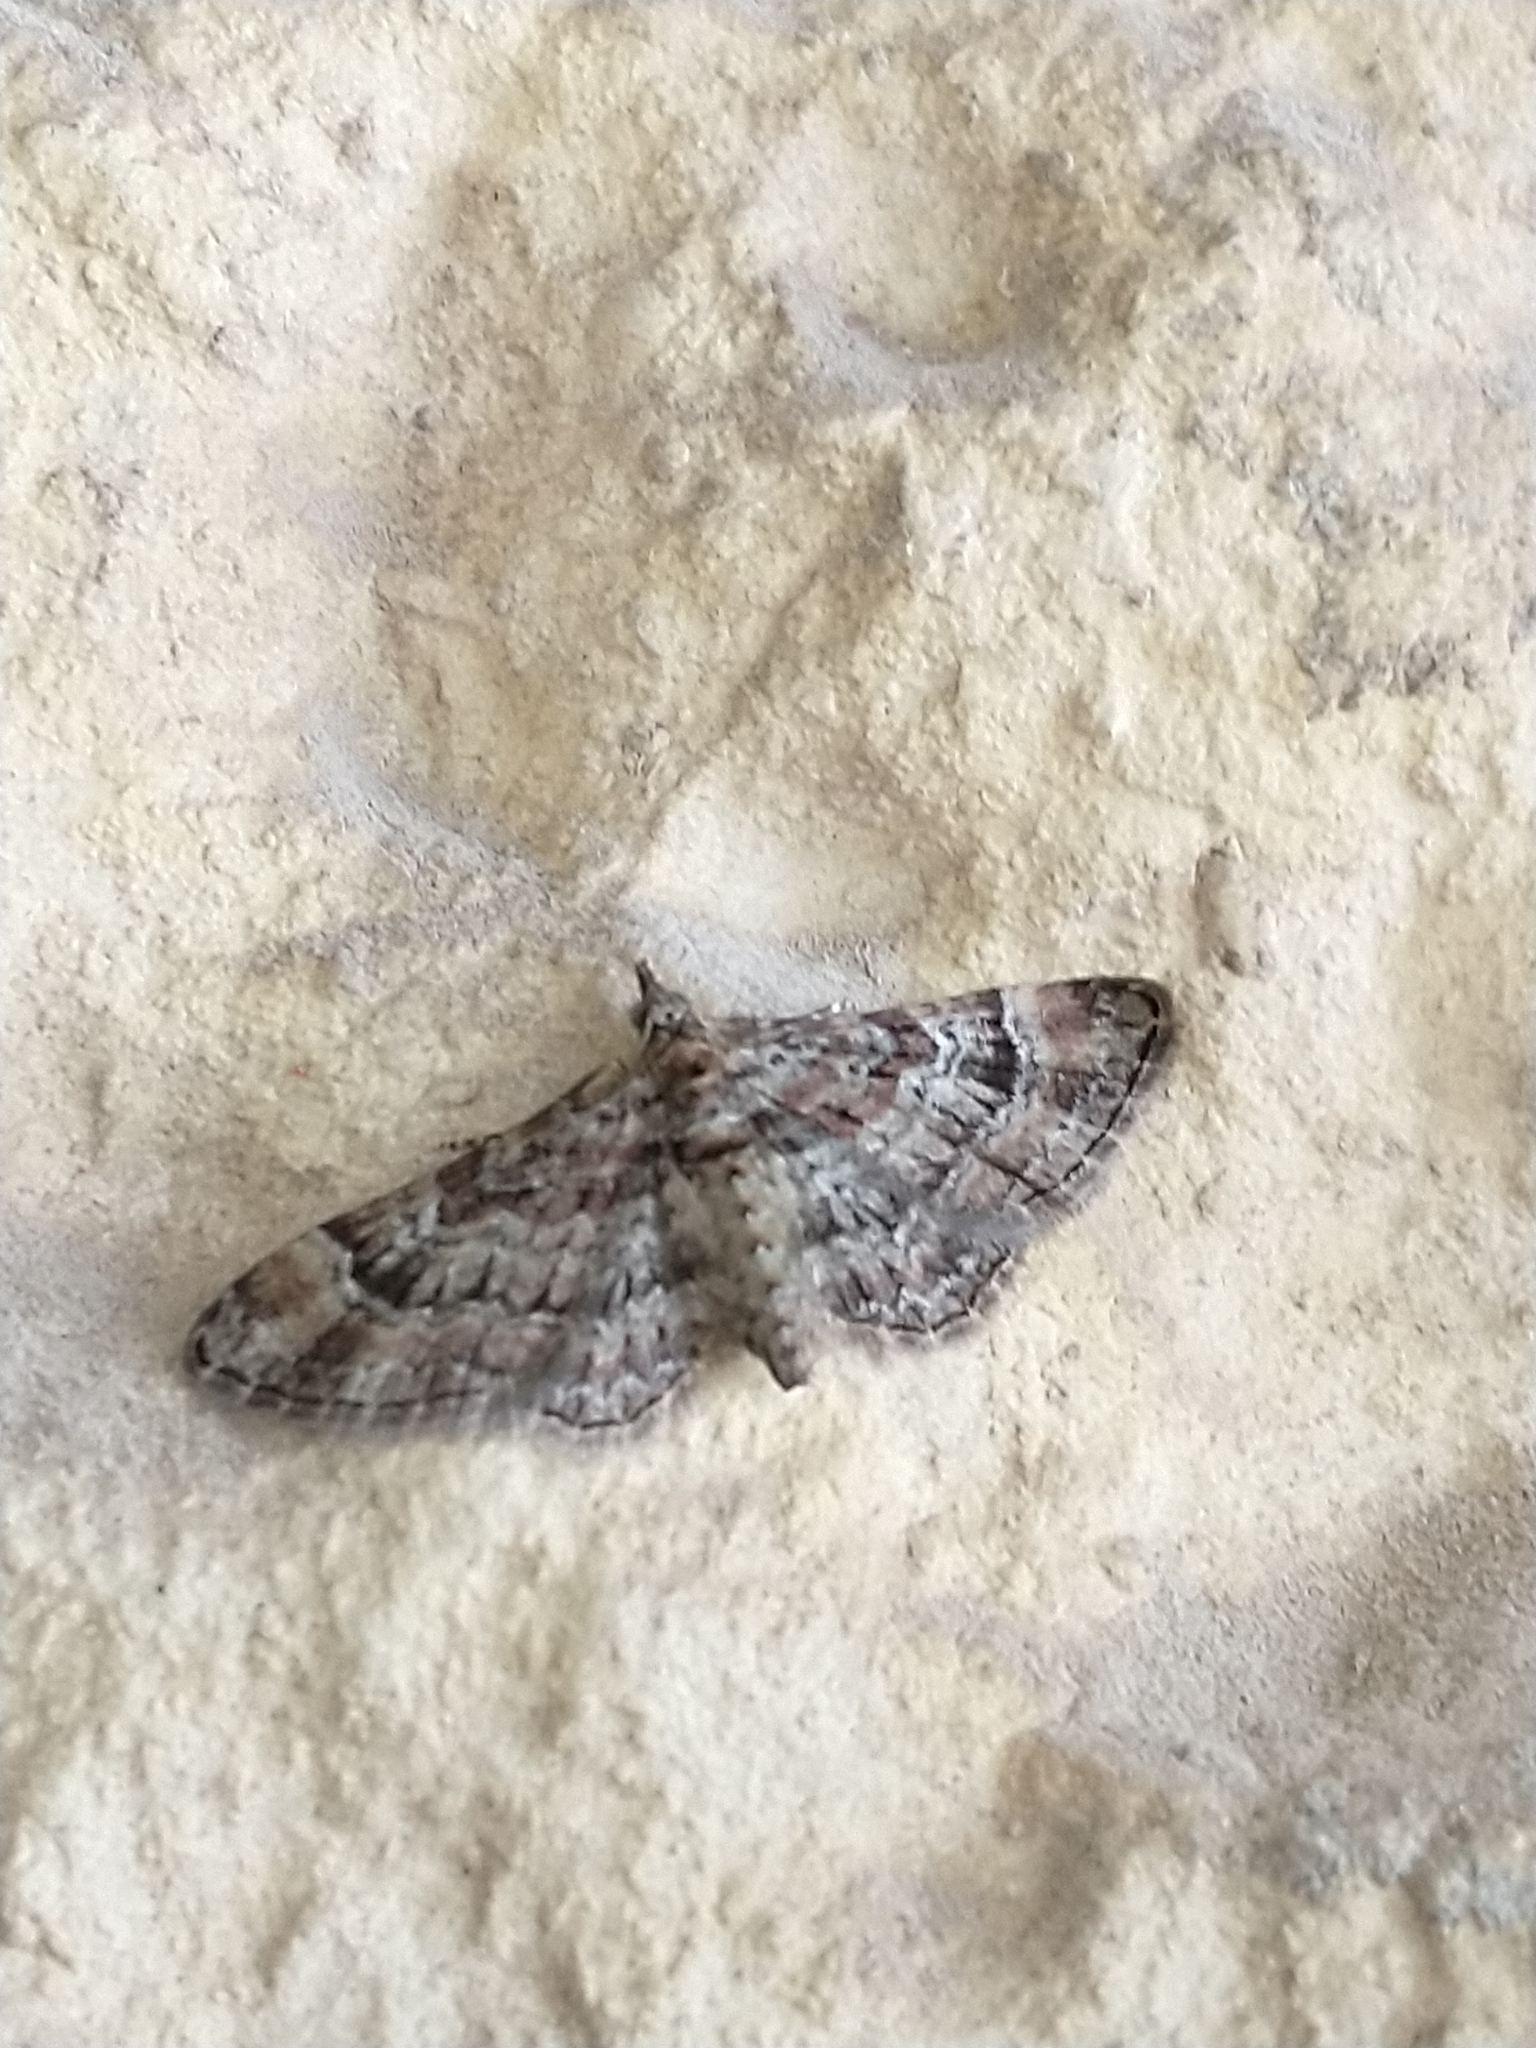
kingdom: Animalia
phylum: Arthropoda
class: Insecta
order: Lepidoptera
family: Geometridae
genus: Gymnoscelis
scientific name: Gymnoscelis rufifasciata
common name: Double-striped pug
